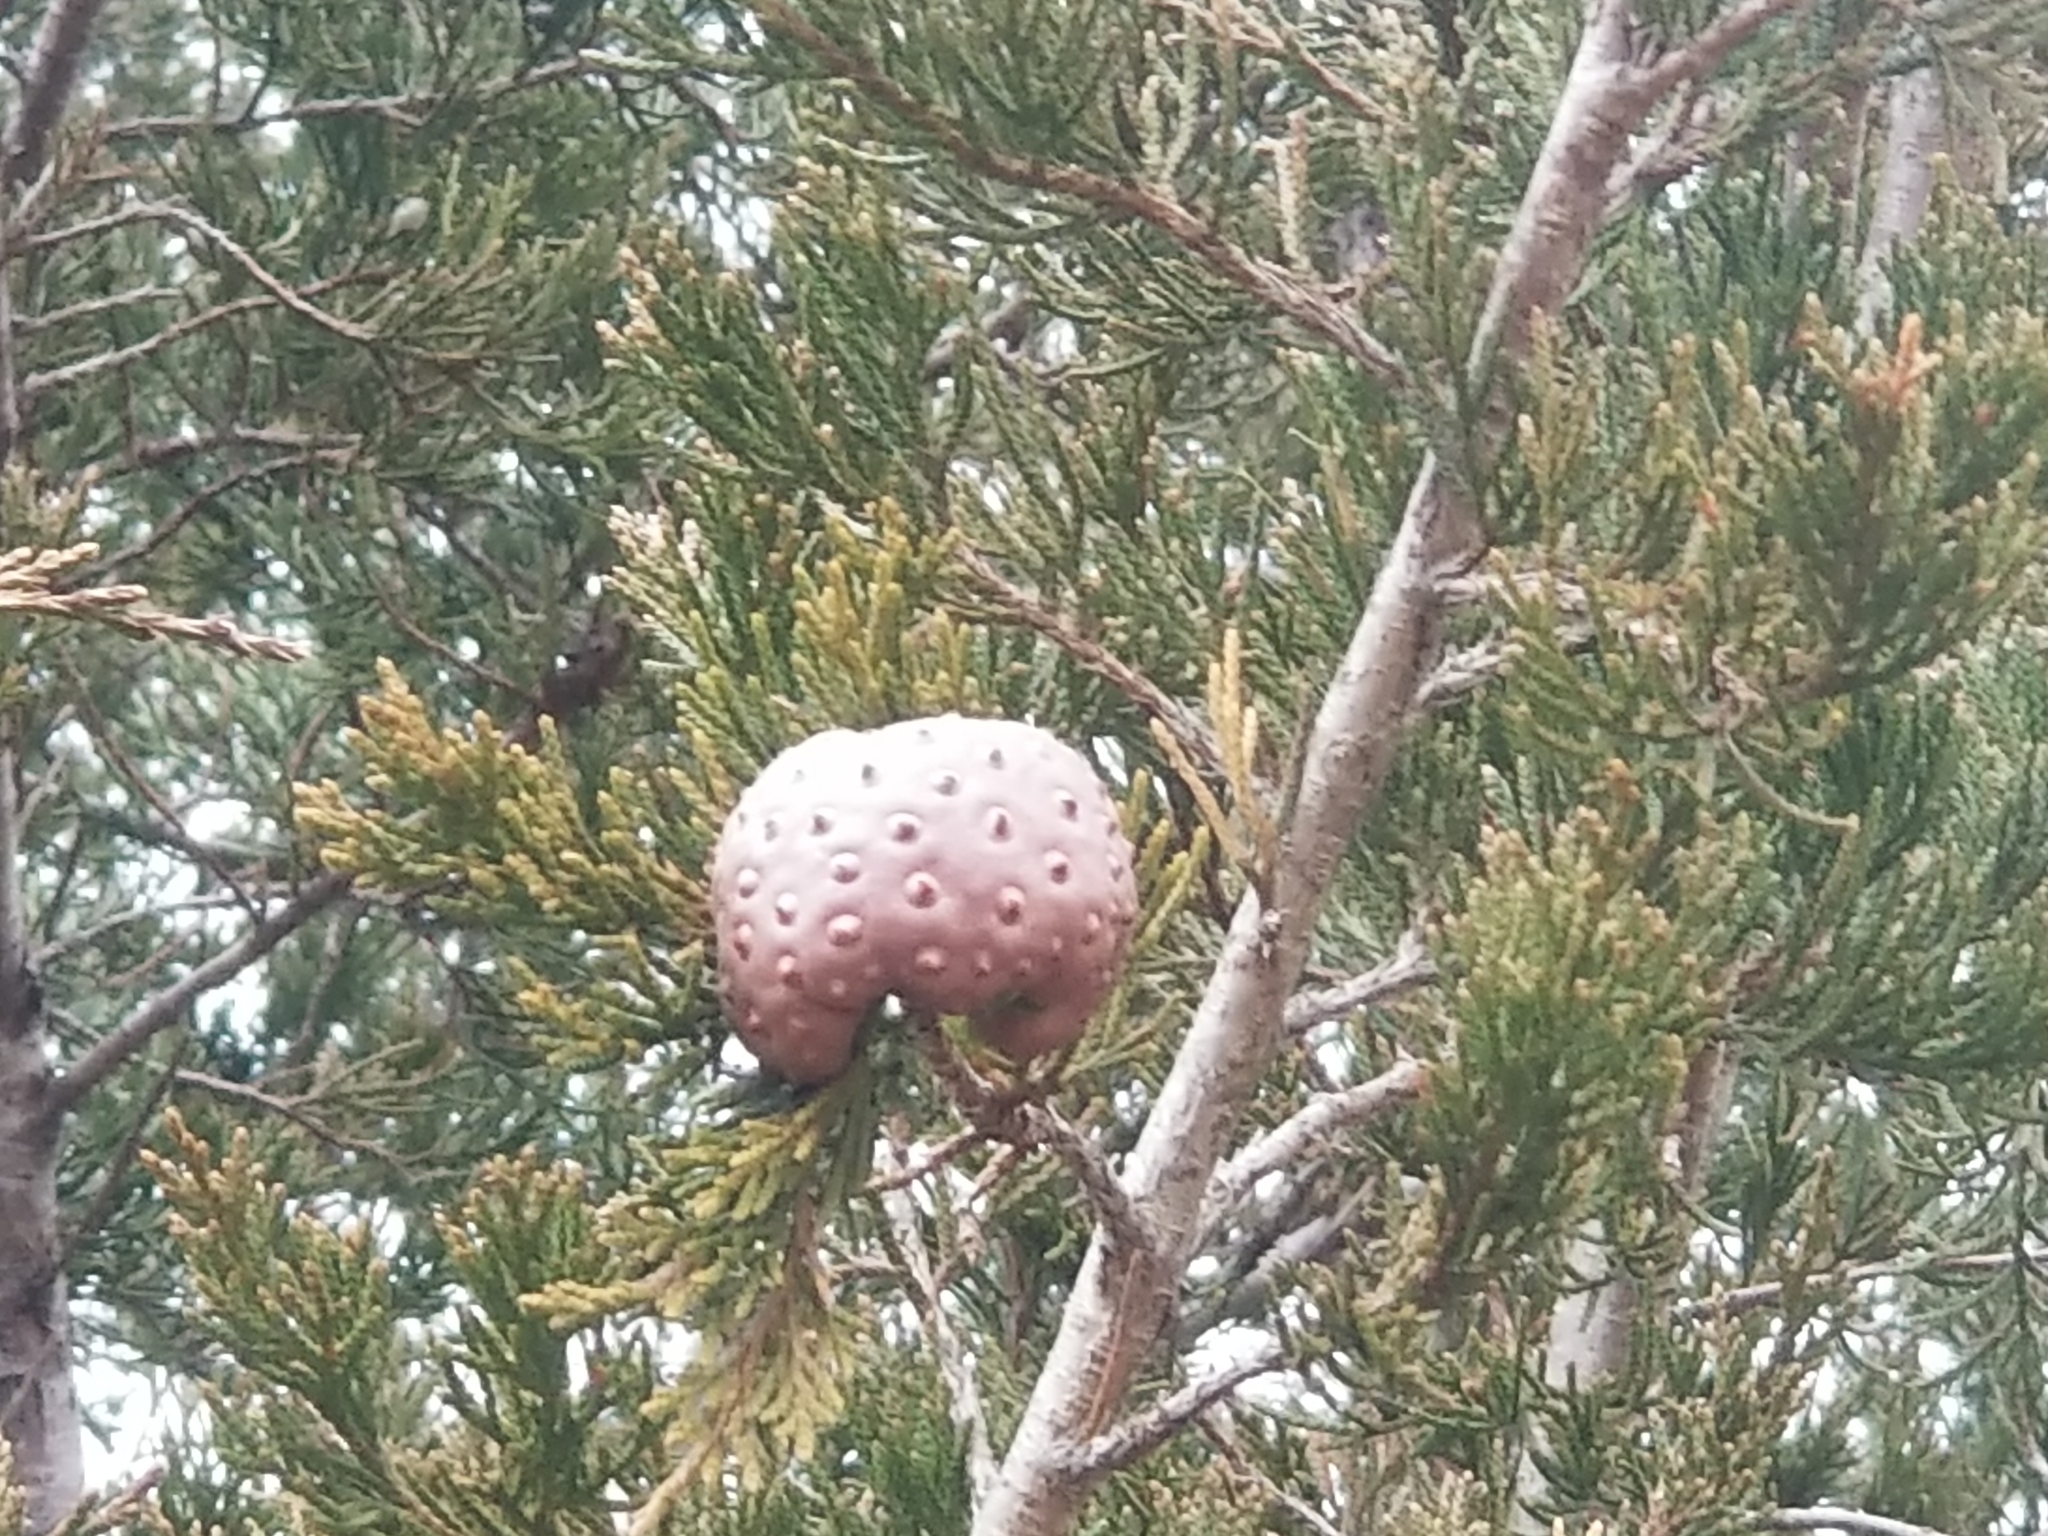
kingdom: Fungi
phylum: Basidiomycota
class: Pucciniomycetes
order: Pucciniales
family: Gymnosporangiaceae
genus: Gymnosporangium
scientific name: Gymnosporangium juniperi-virginianae
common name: Juniper-apple rust
